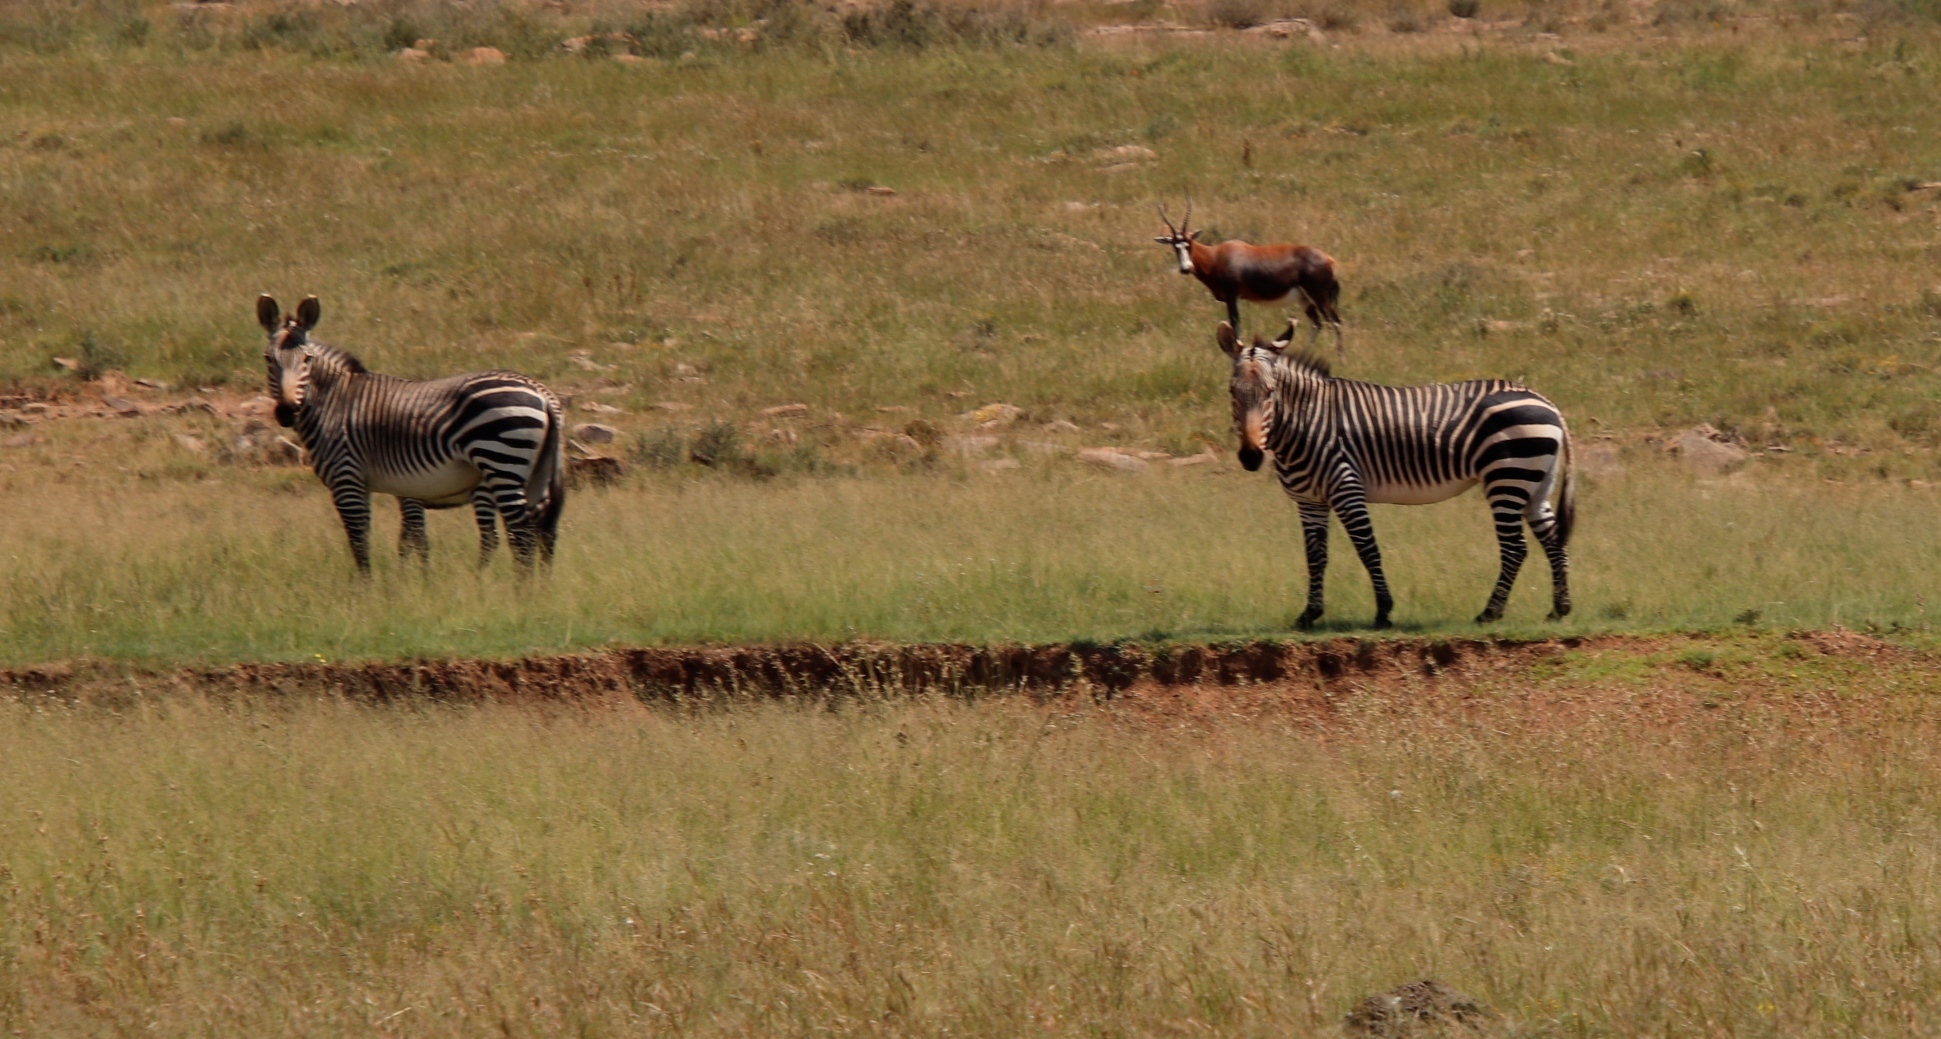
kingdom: Animalia
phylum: Chordata
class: Mammalia
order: Perissodactyla
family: Equidae
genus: Equus
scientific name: Equus zebra
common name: Mountain zebra
